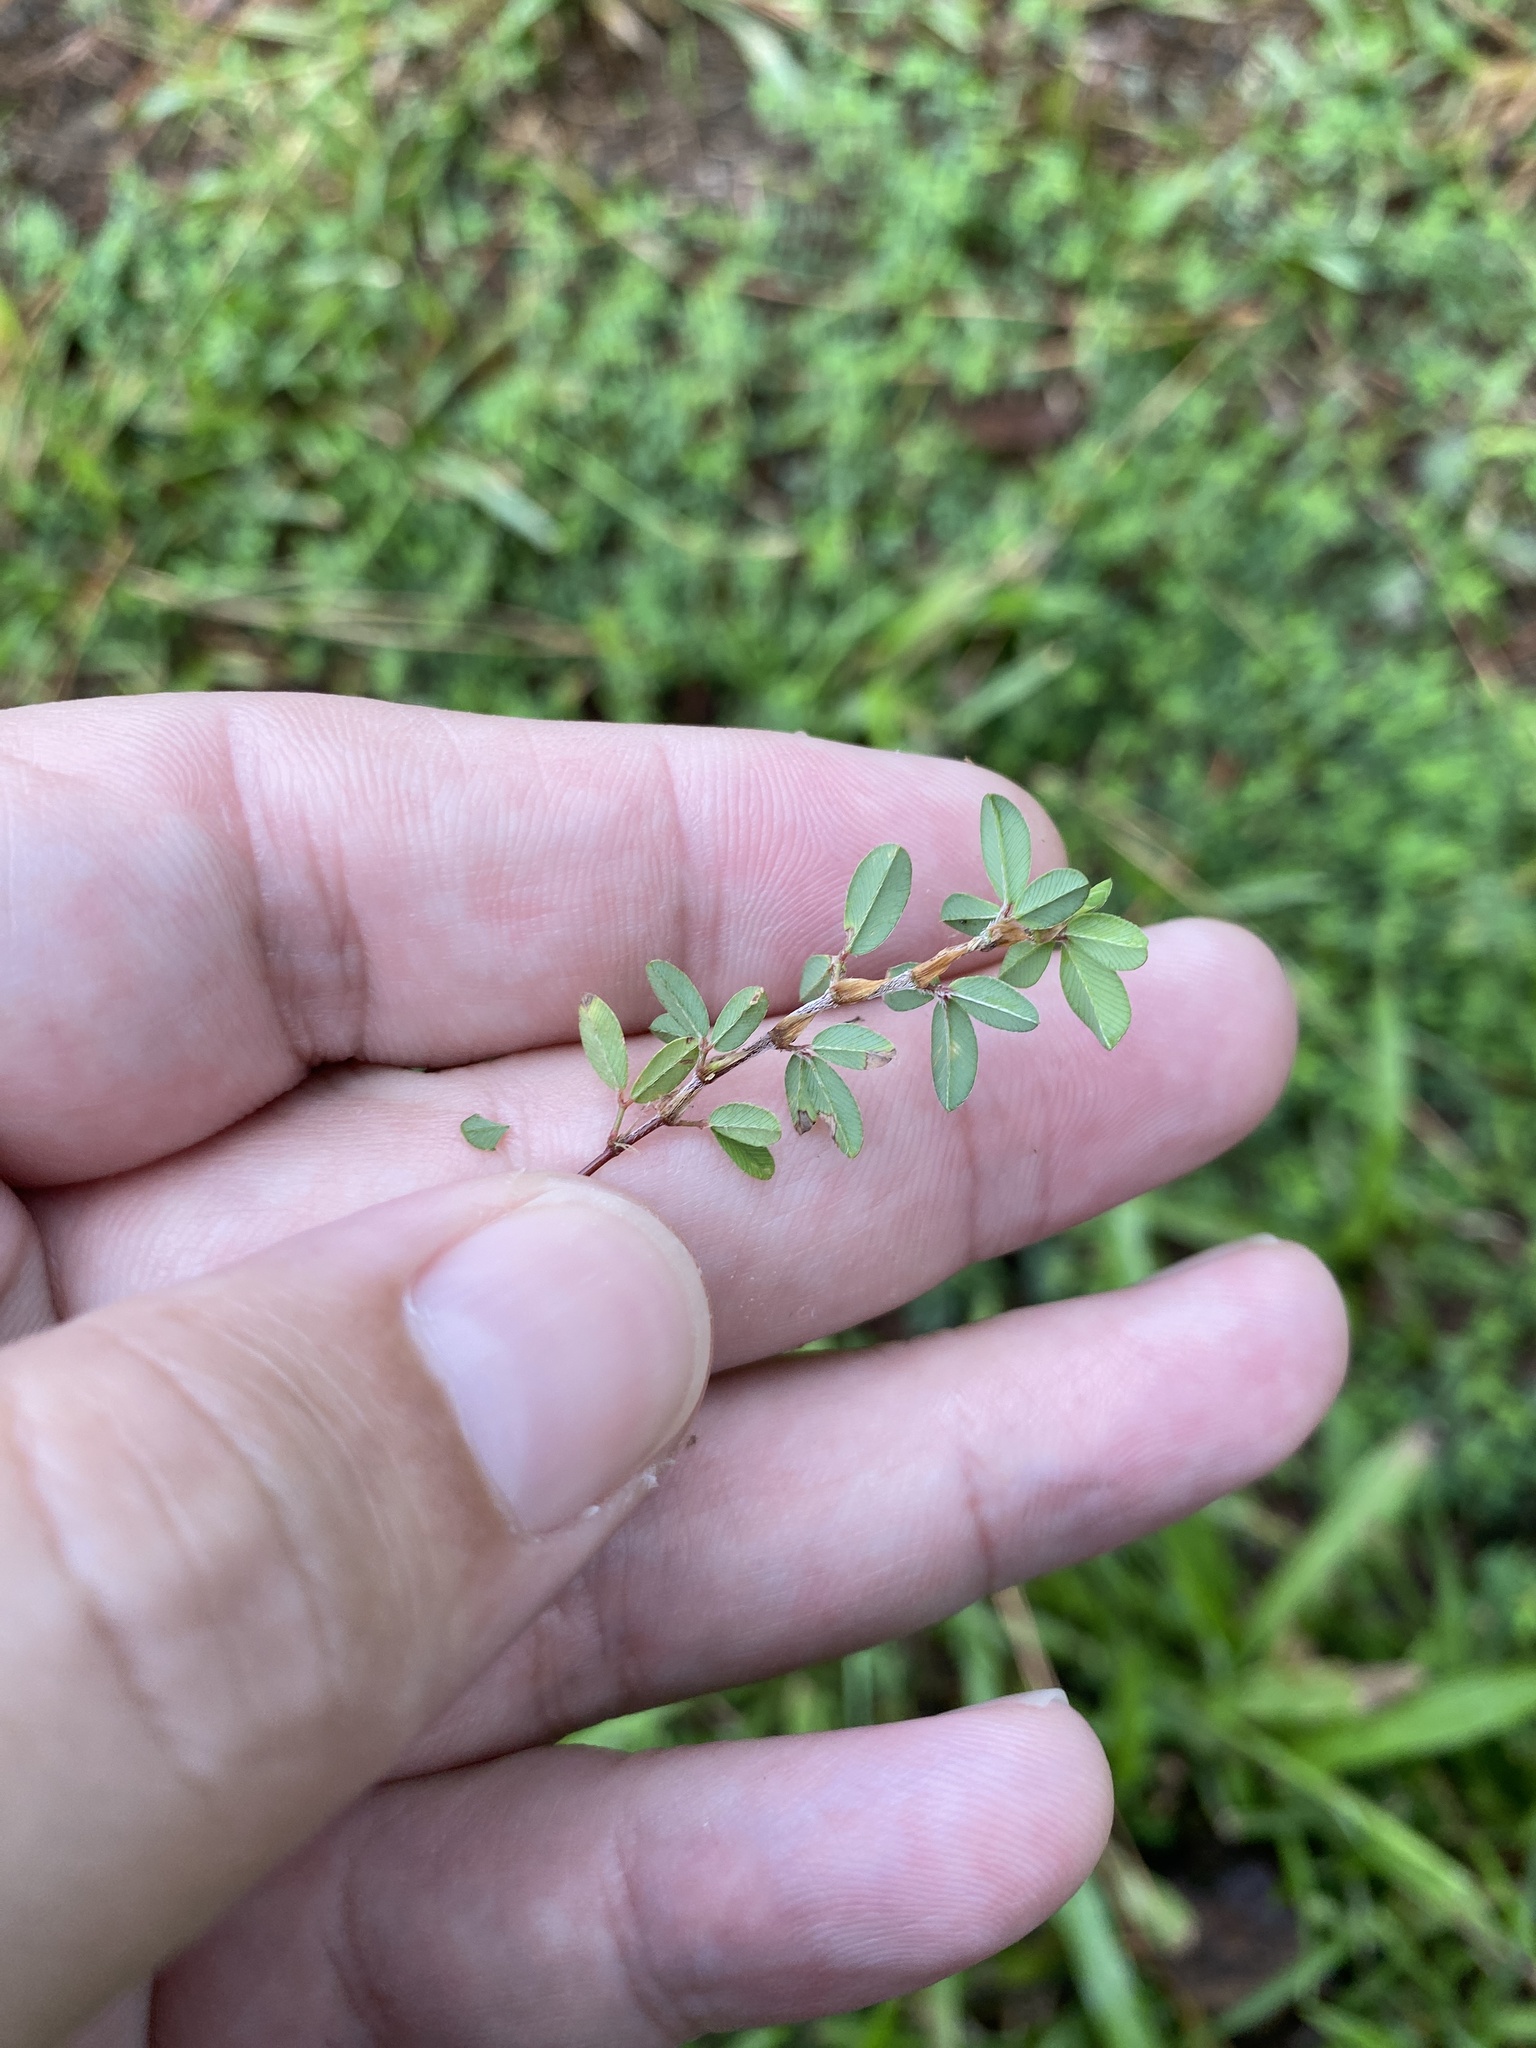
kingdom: Plantae
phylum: Tracheophyta
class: Magnoliopsida
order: Fabales
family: Fabaceae
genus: Kummerowia
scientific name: Kummerowia striata
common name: Japanese clover
